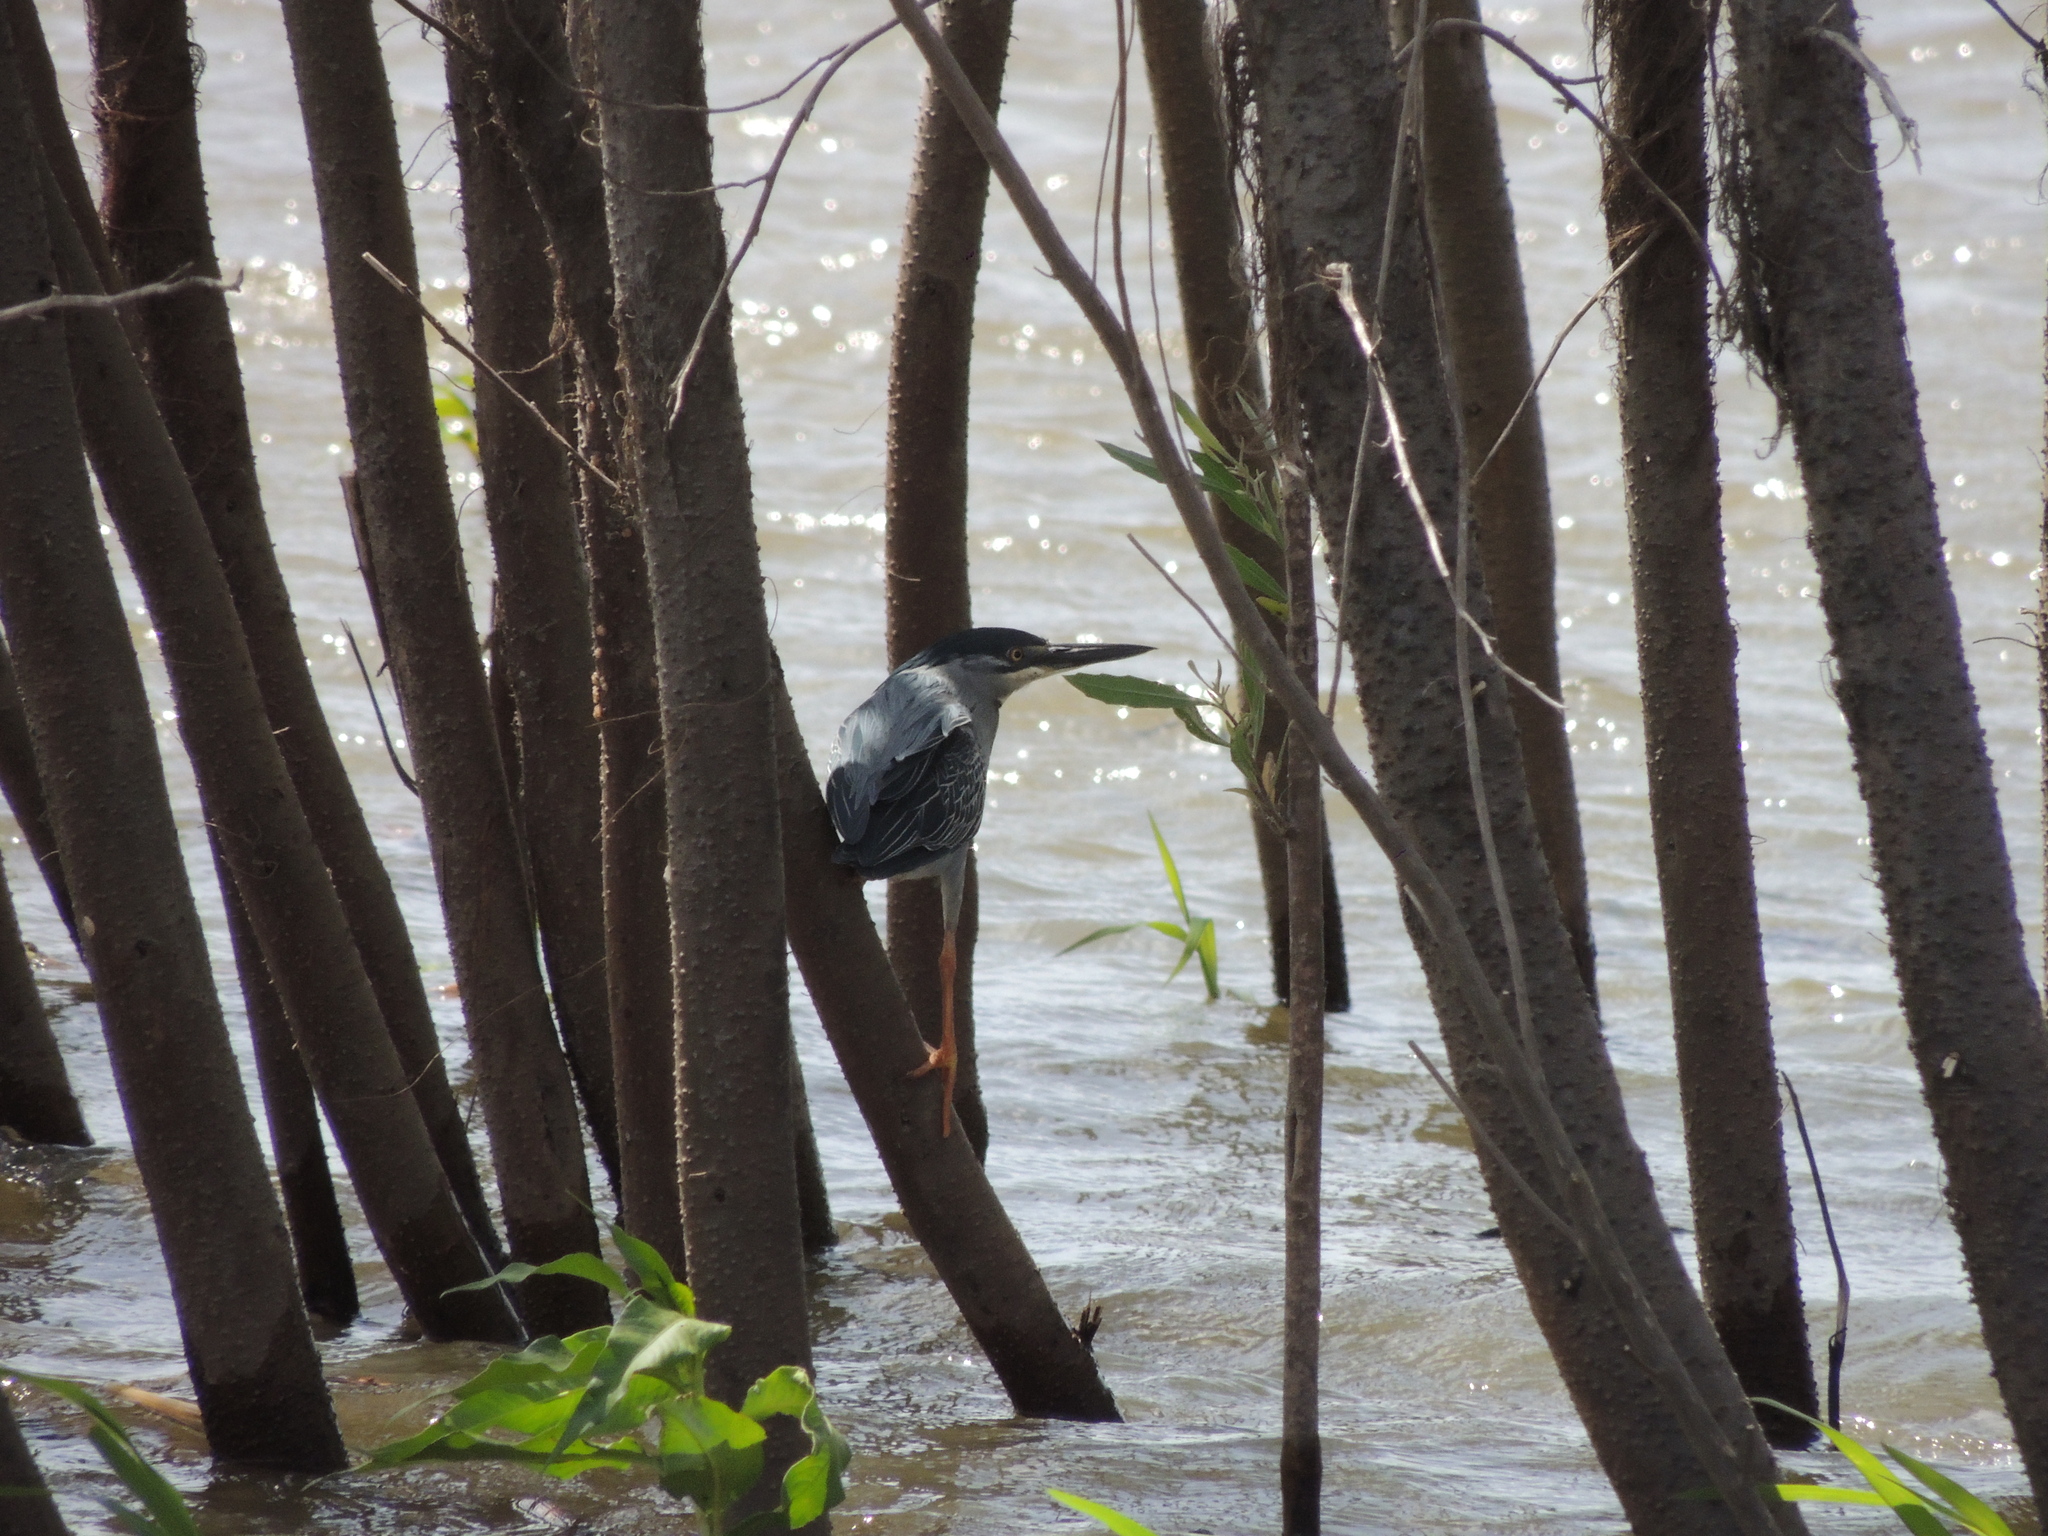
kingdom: Animalia
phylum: Chordata
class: Aves
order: Pelecaniformes
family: Ardeidae
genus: Butorides
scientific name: Butorides striata
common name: Striated heron
